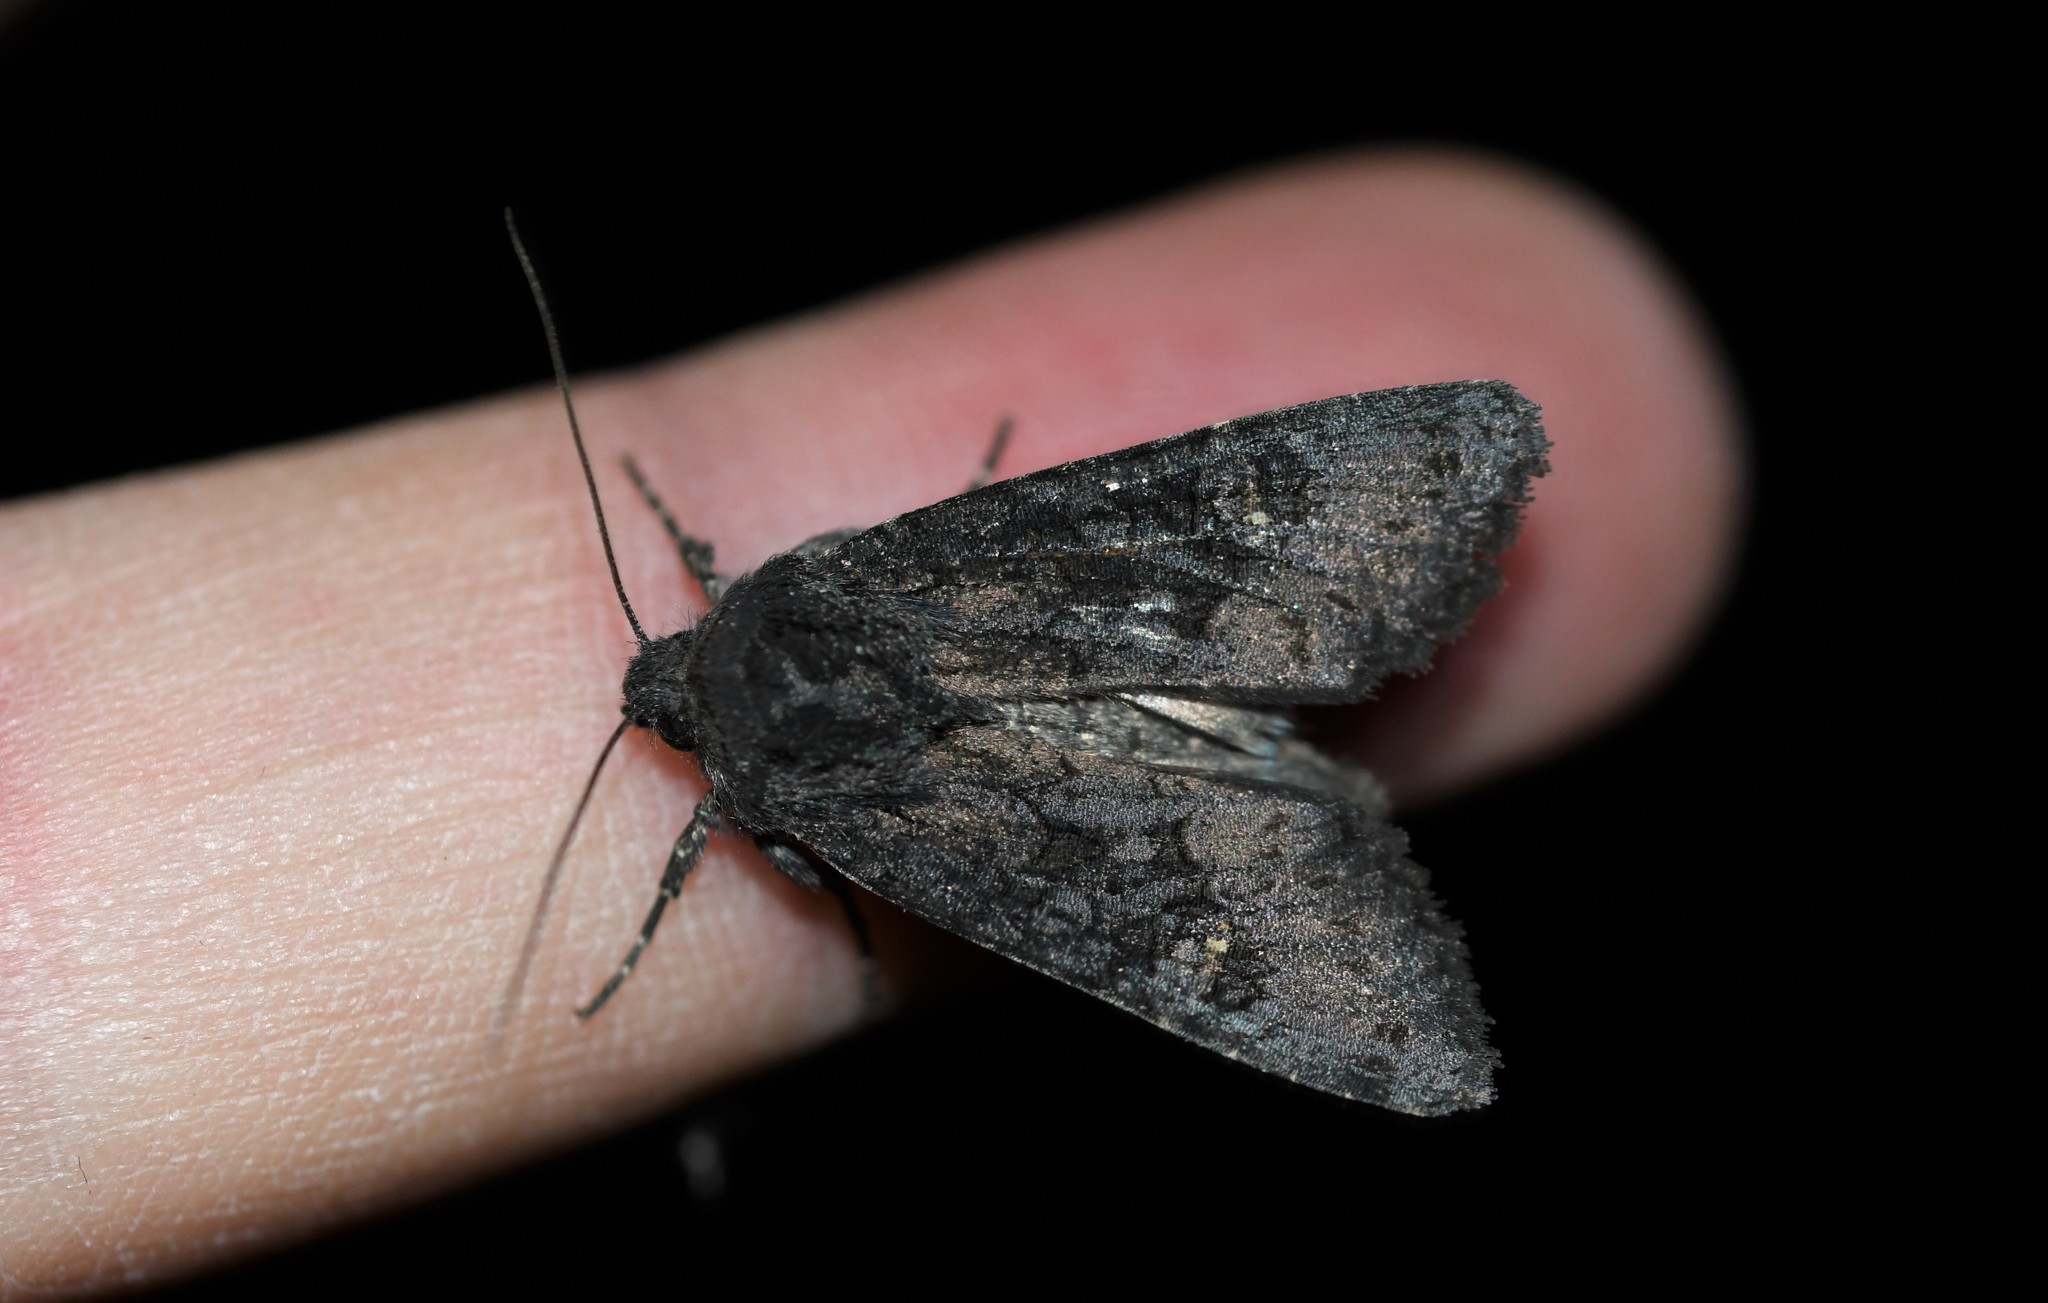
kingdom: Animalia
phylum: Arthropoda
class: Insecta
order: Lepidoptera
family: Noctuidae
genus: Aporophyla
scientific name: Aporophyla nigra
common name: Black rustic
